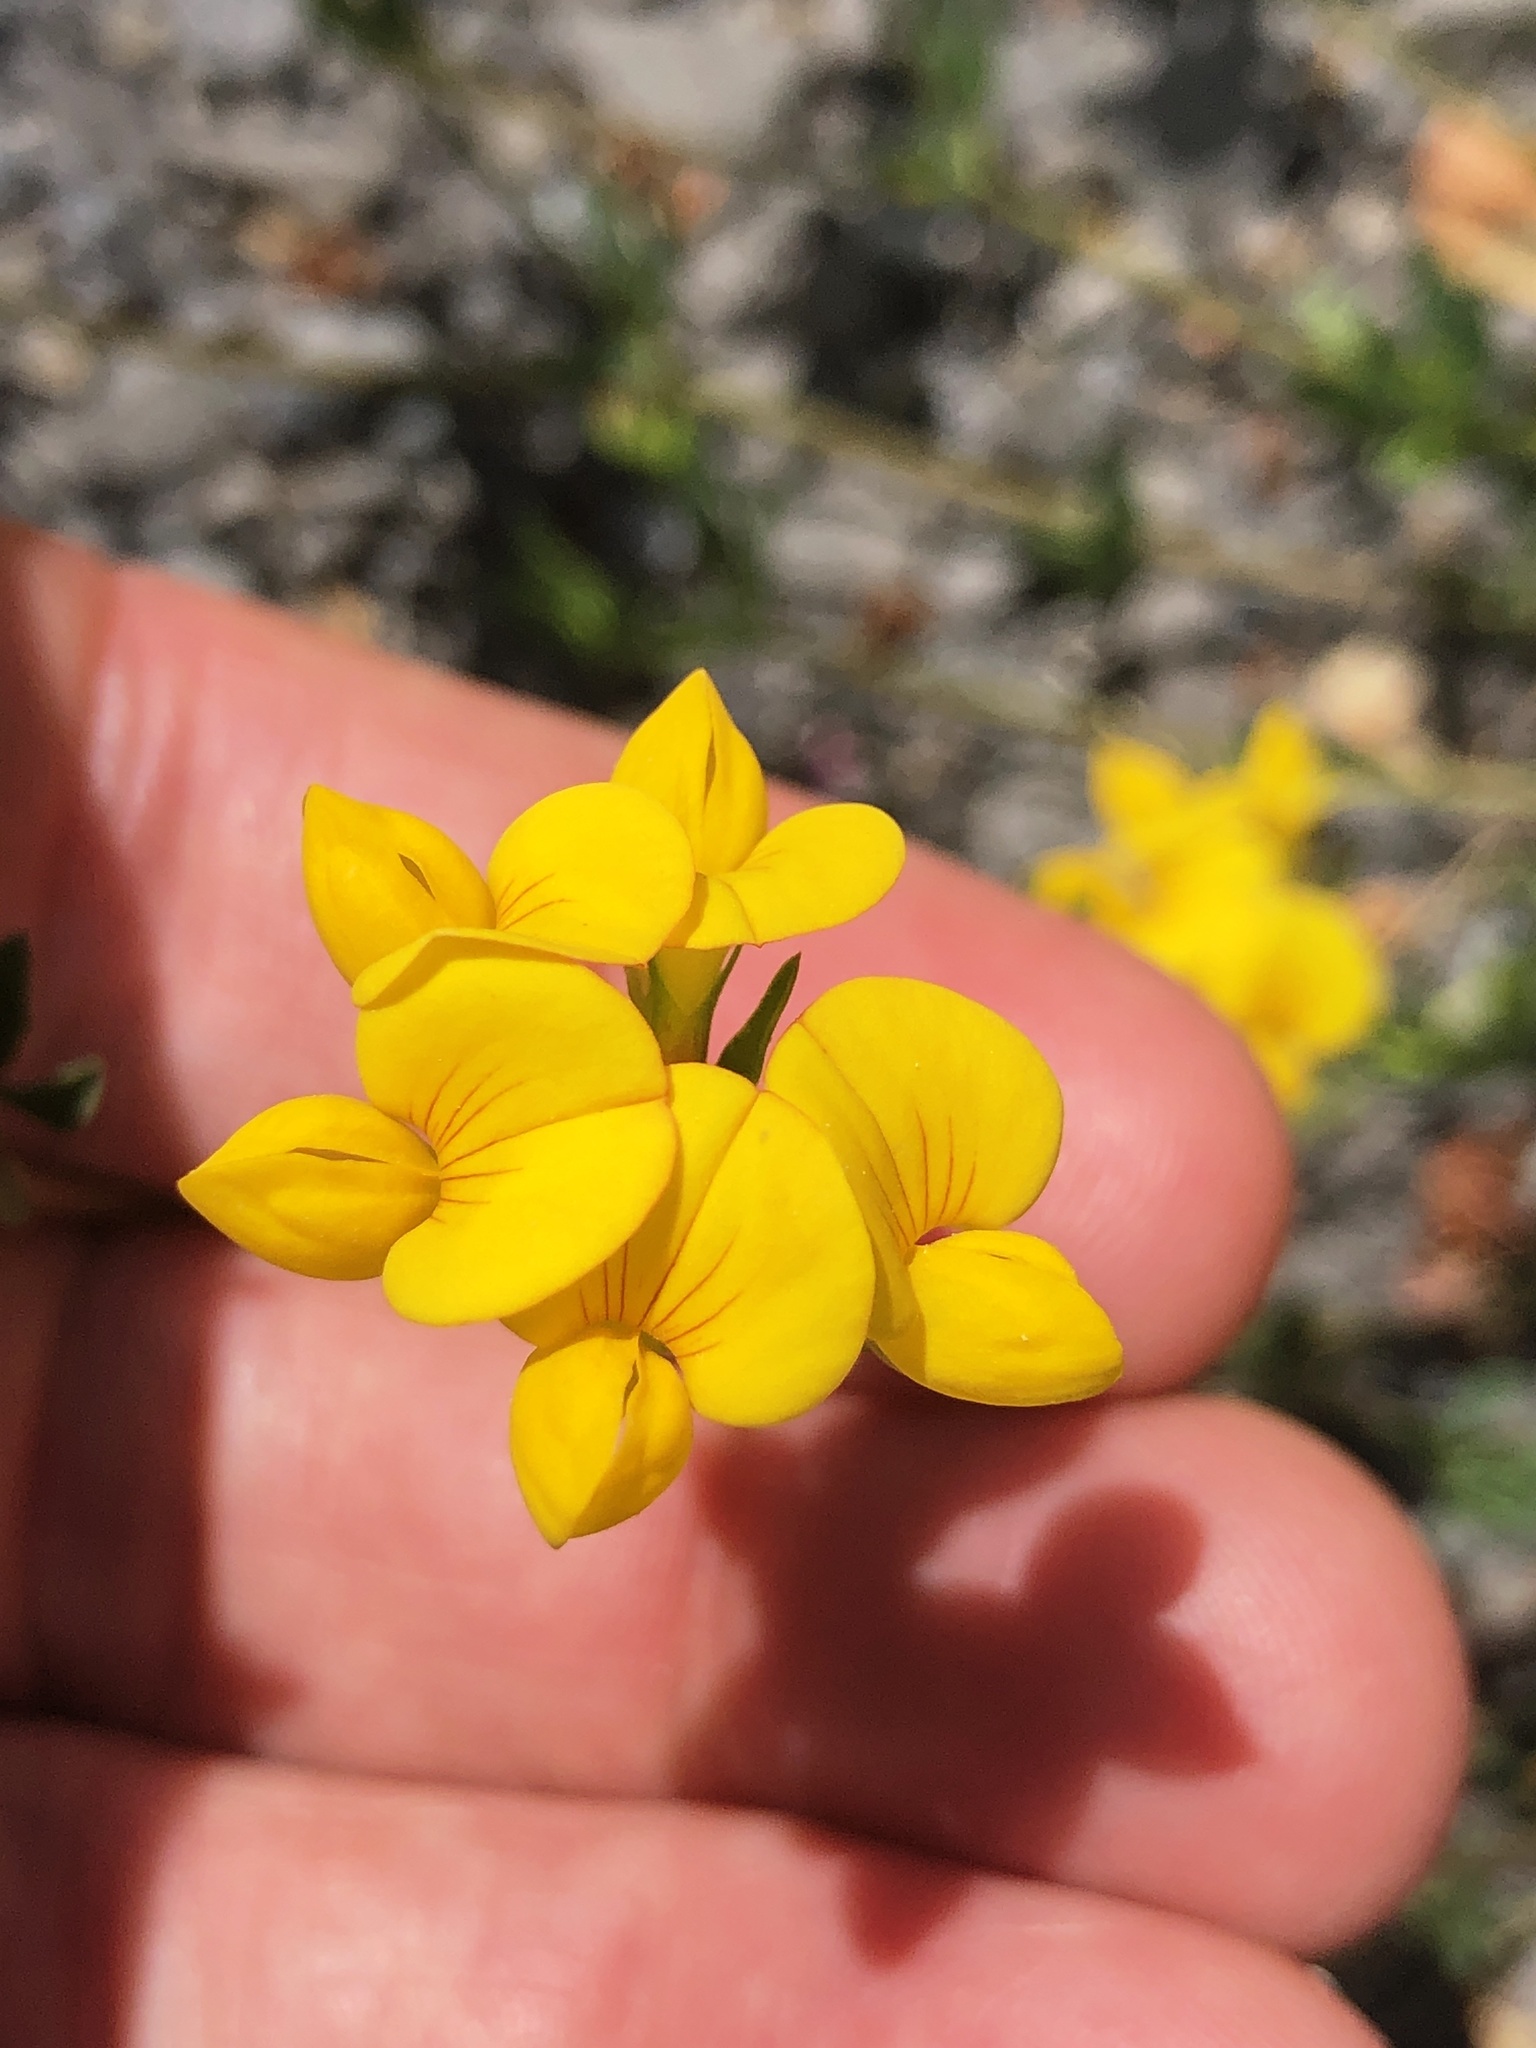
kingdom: Plantae
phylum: Tracheophyta
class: Magnoliopsida
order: Fabales
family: Fabaceae
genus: Lotus
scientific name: Lotus corniculatus
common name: Common bird's-foot-trefoil
